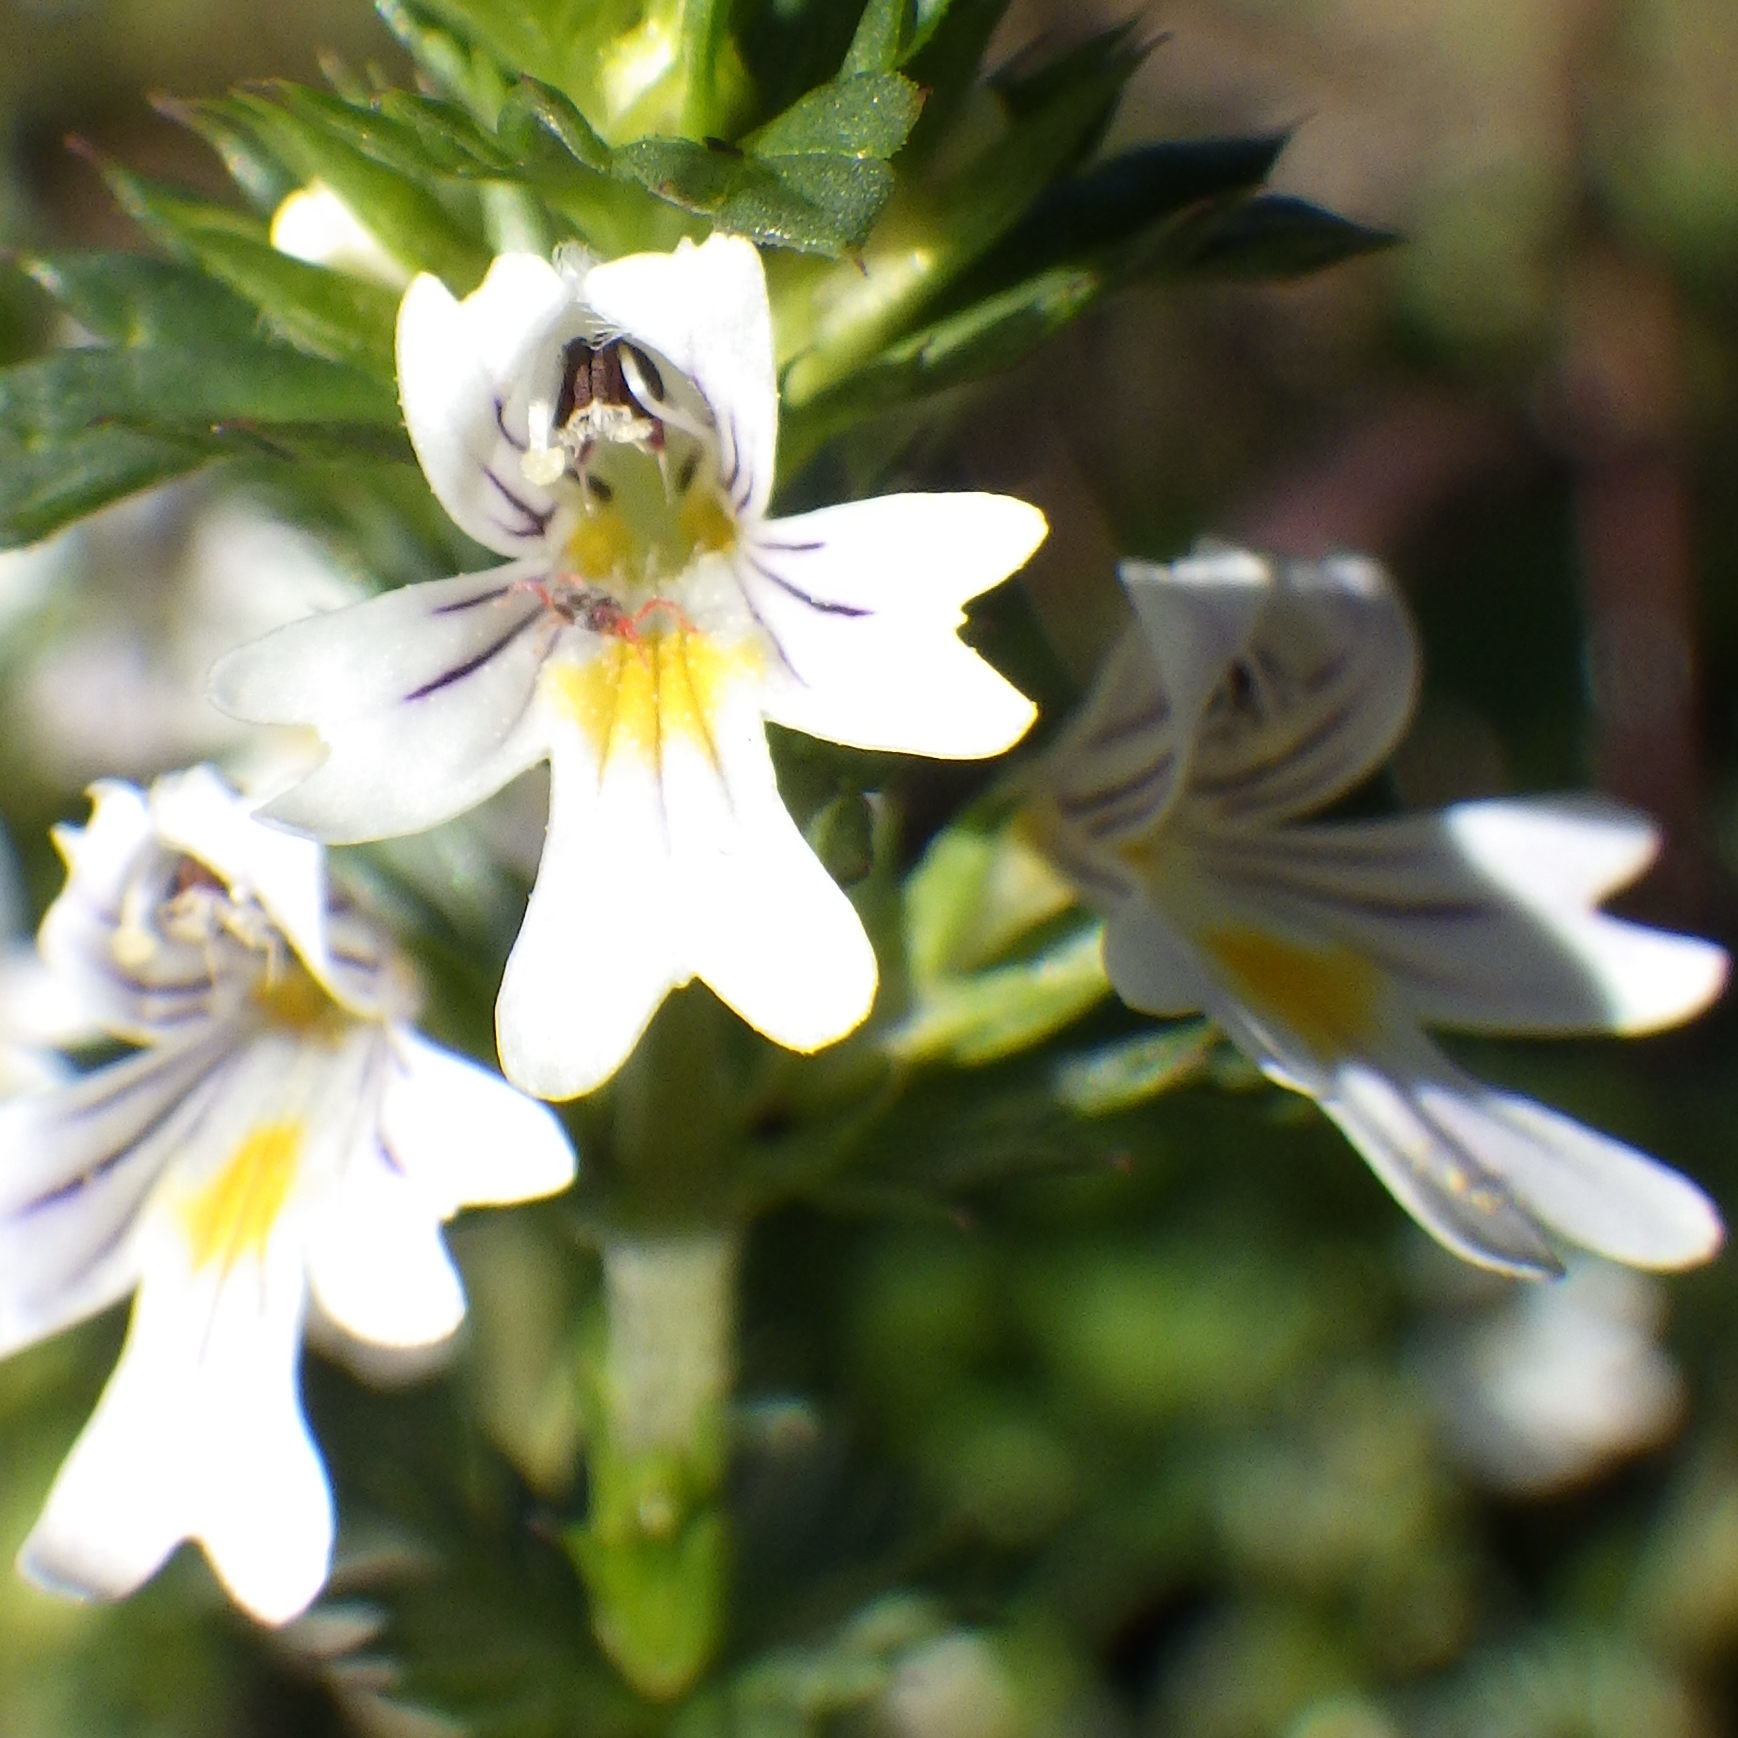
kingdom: Plantae
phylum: Tracheophyta
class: Magnoliopsida
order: Lamiales
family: Orobanchaceae
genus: Euphrasia
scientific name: Euphrasia nemorosa
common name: Common eyebright
